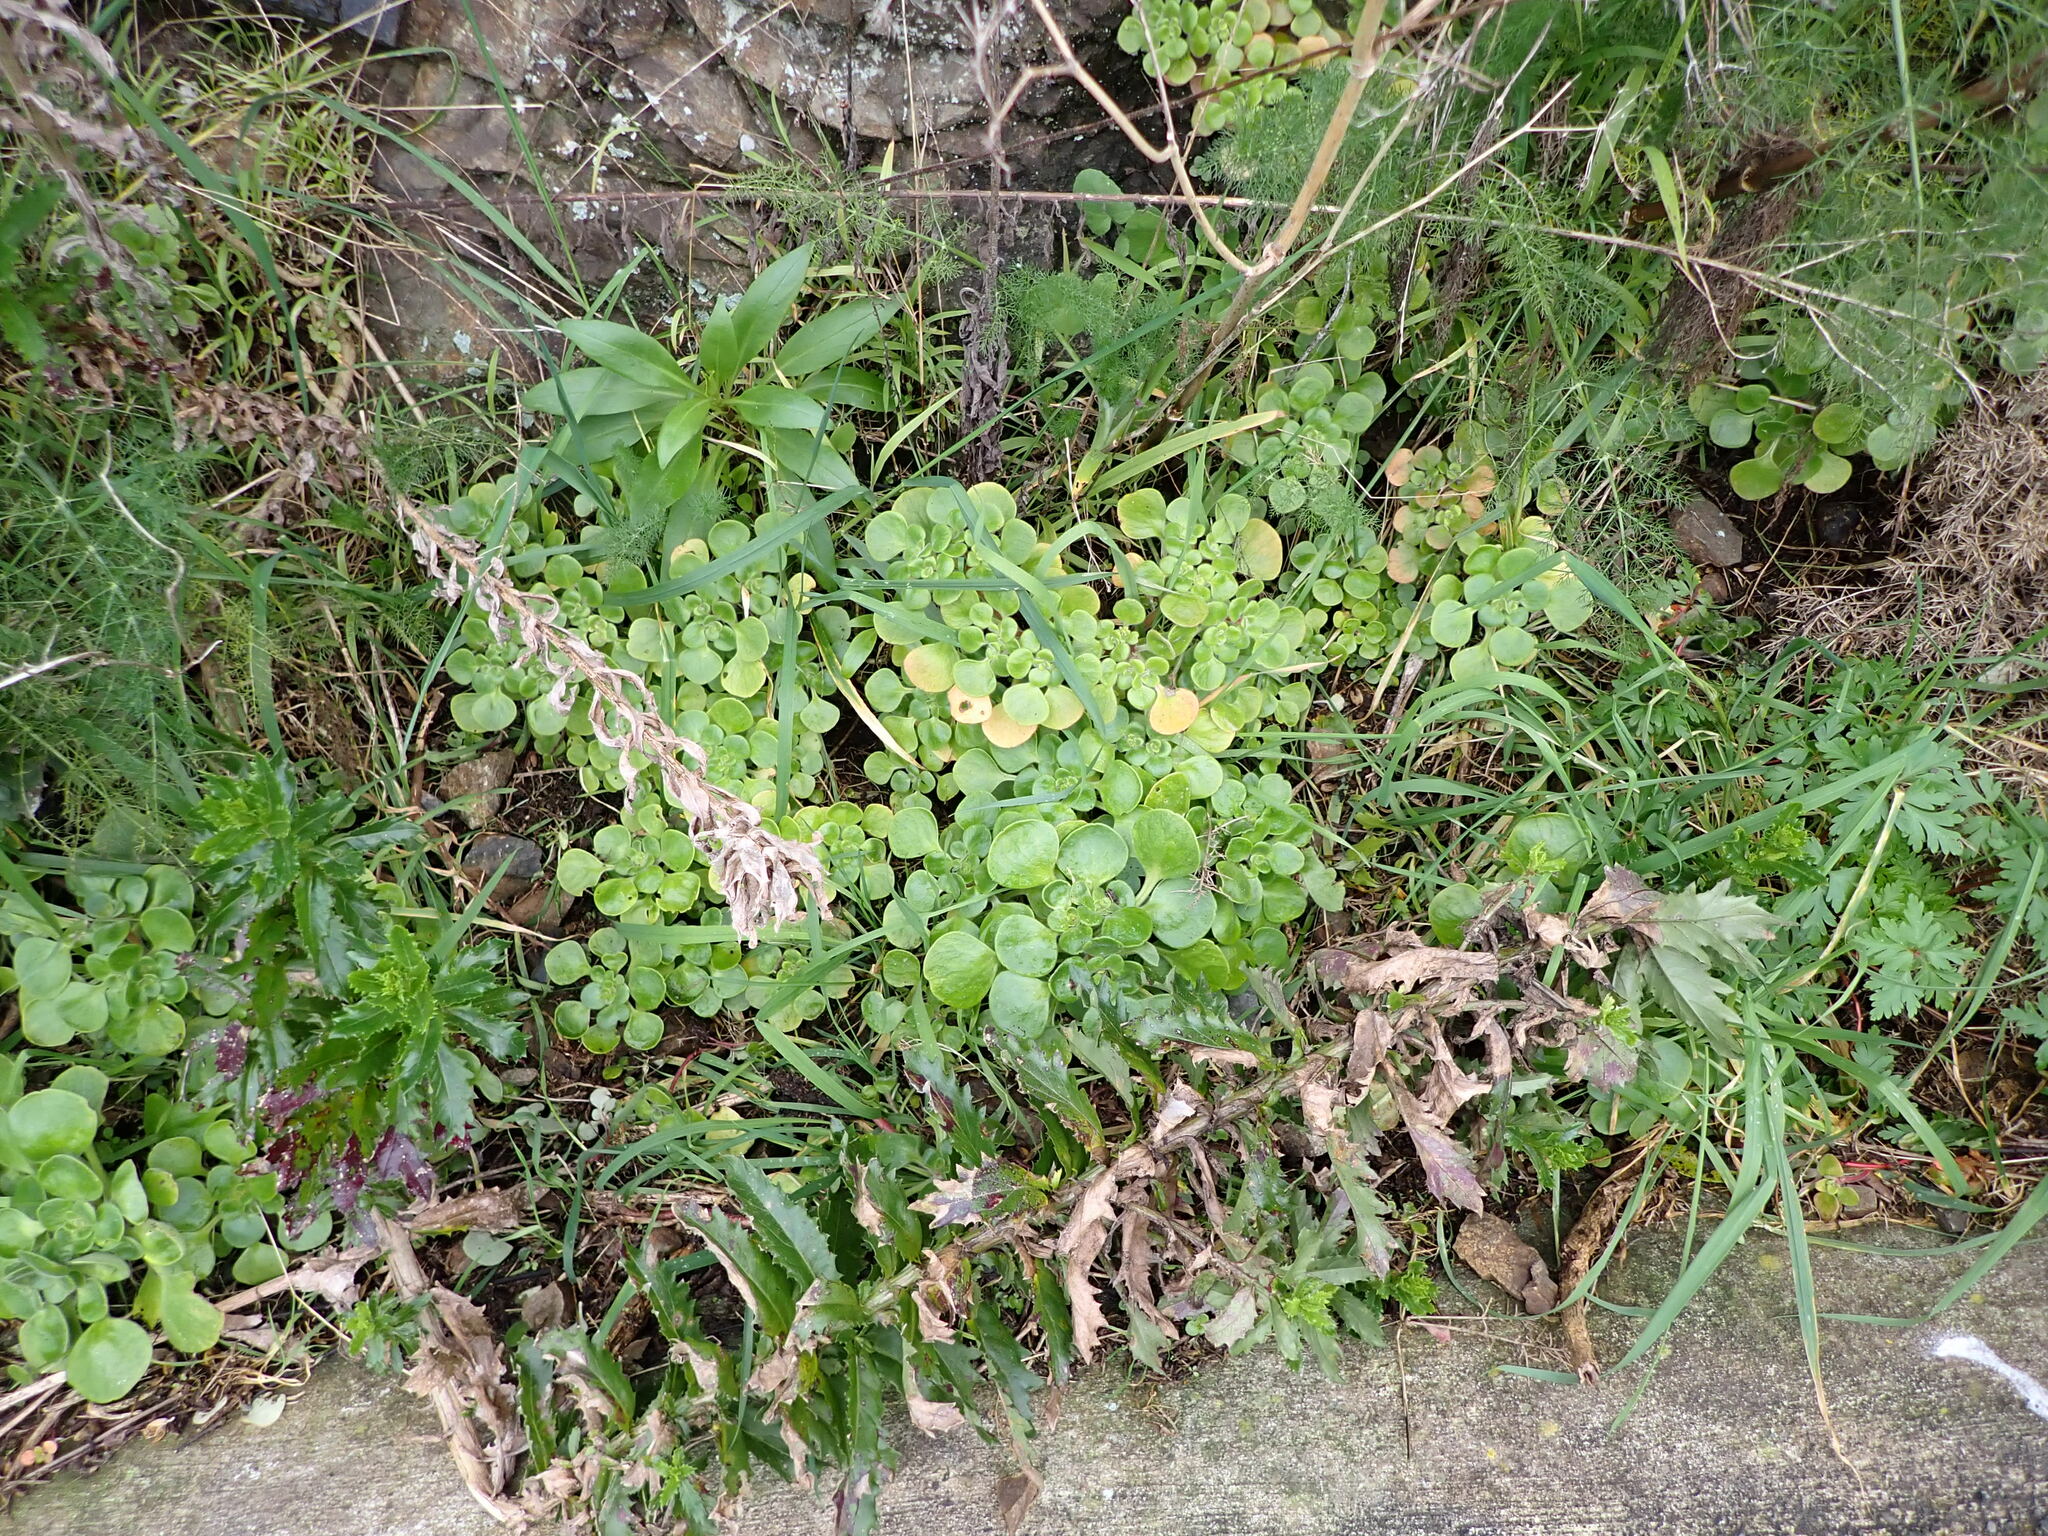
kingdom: Plantae
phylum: Tracheophyta
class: Magnoliopsida
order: Saxifragales
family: Crassulaceae
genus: Aichryson
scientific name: Aichryson laxum
